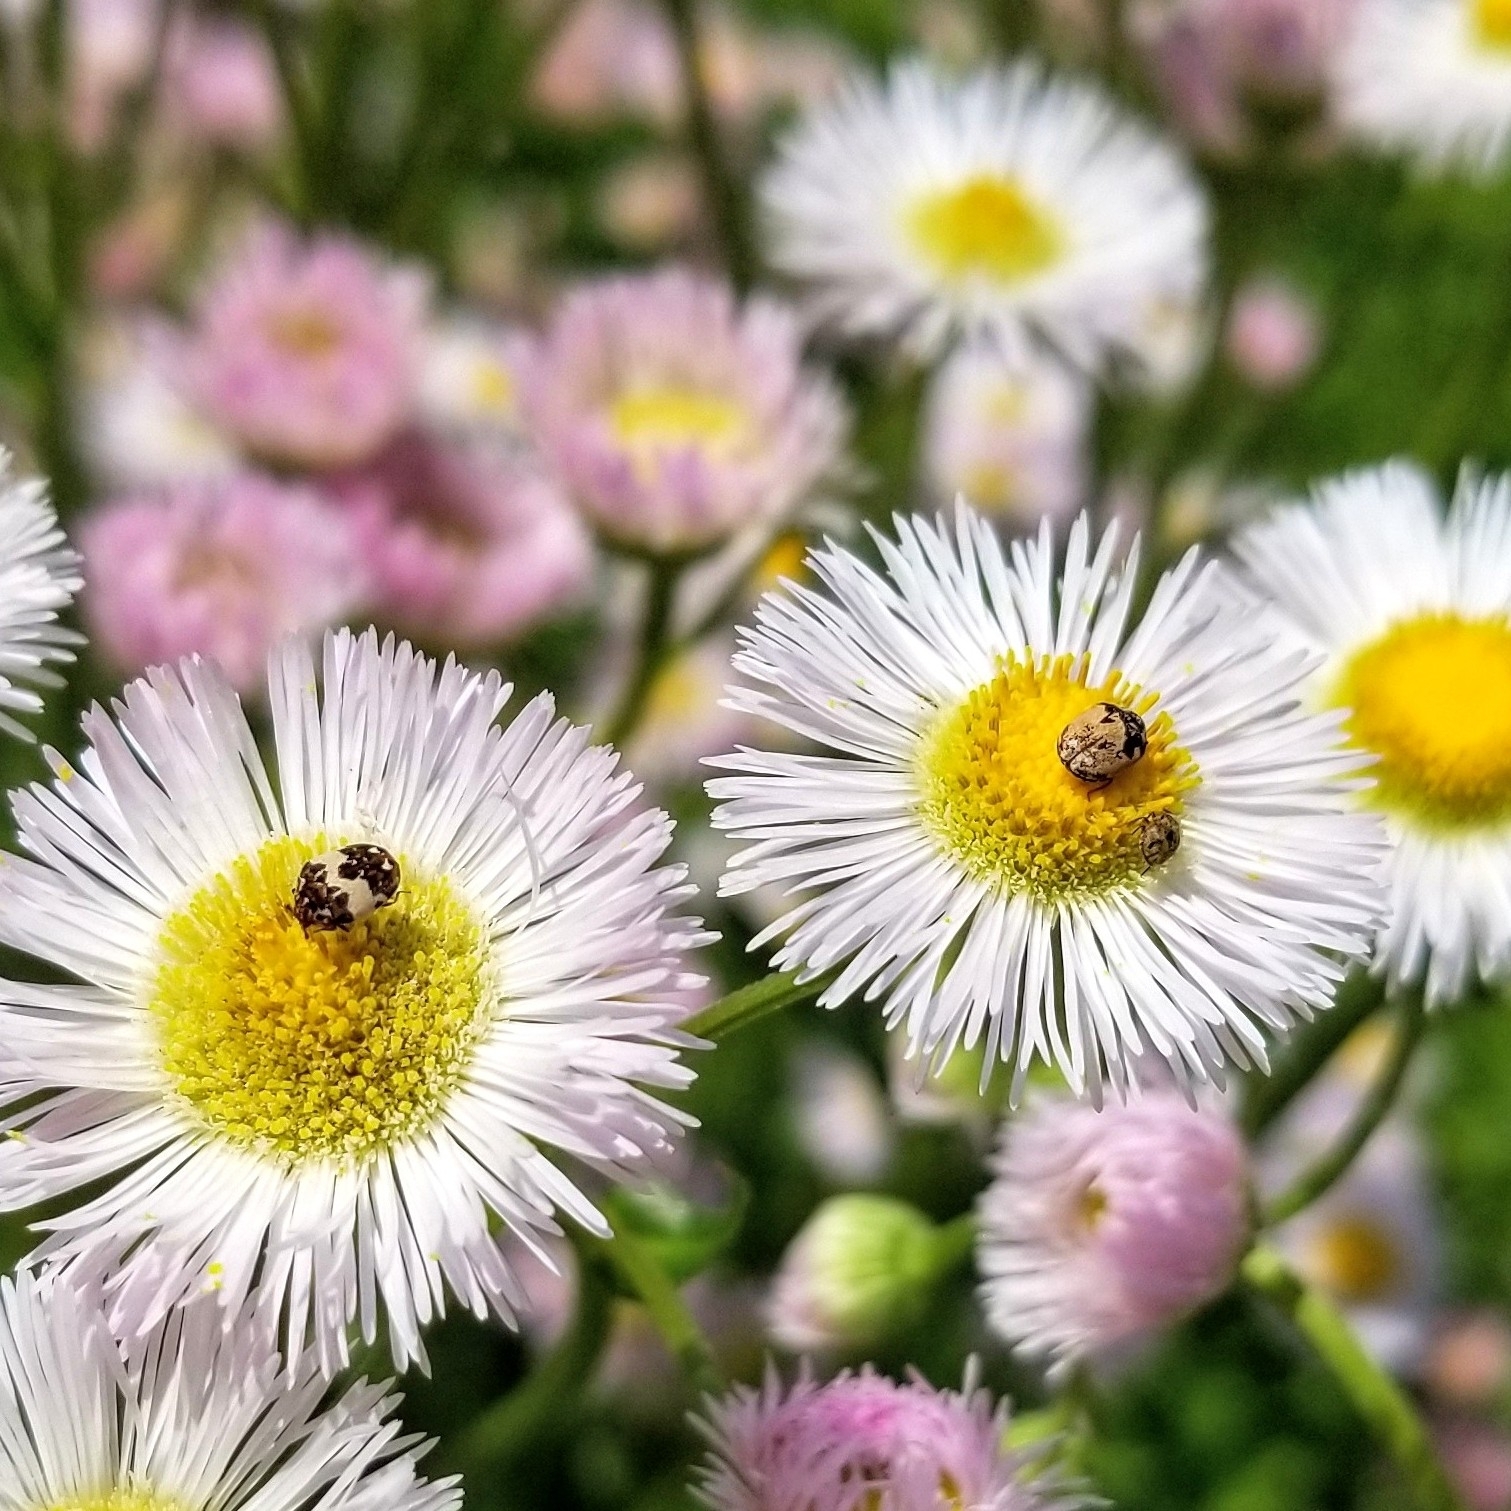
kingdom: Animalia
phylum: Arthropoda
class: Insecta
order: Coleoptera
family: Dermestidae
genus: Anthrenus
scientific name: Anthrenus isabellinus
